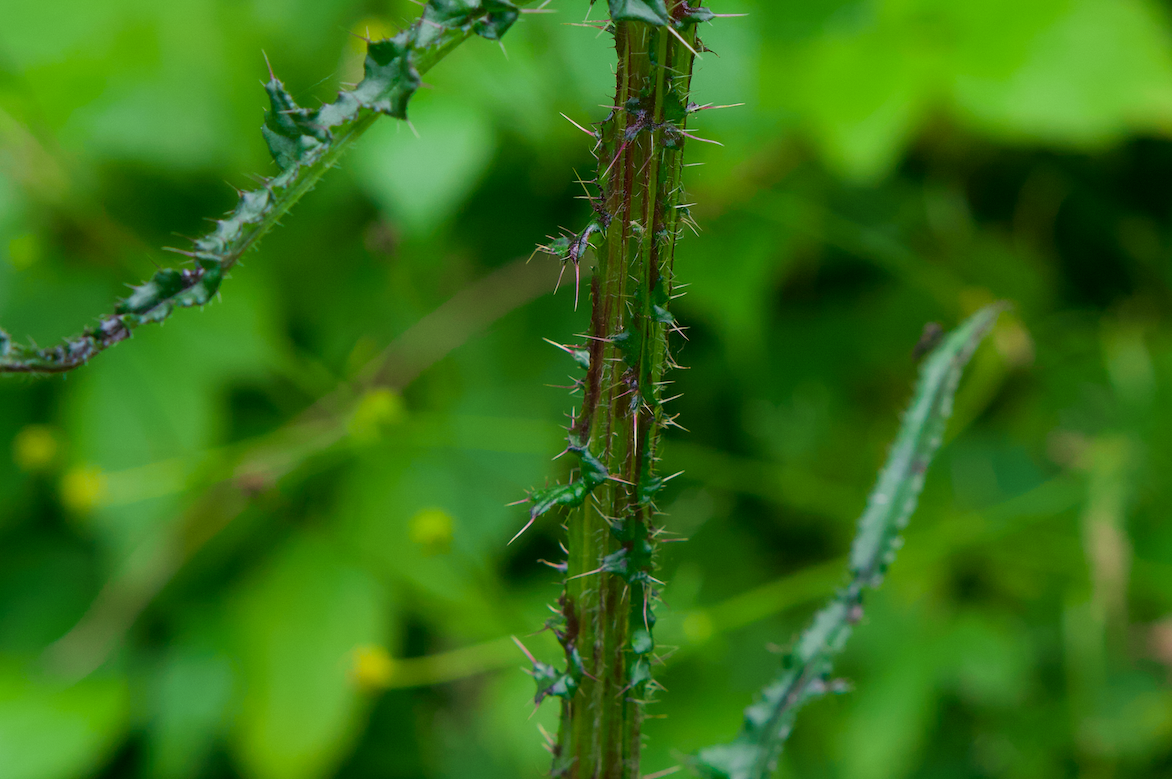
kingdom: Plantae
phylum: Tracheophyta
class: Magnoliopsida
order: Asterales
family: Asteraceae
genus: Cirsium
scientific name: Cirsium palustre
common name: Marsh thistle
